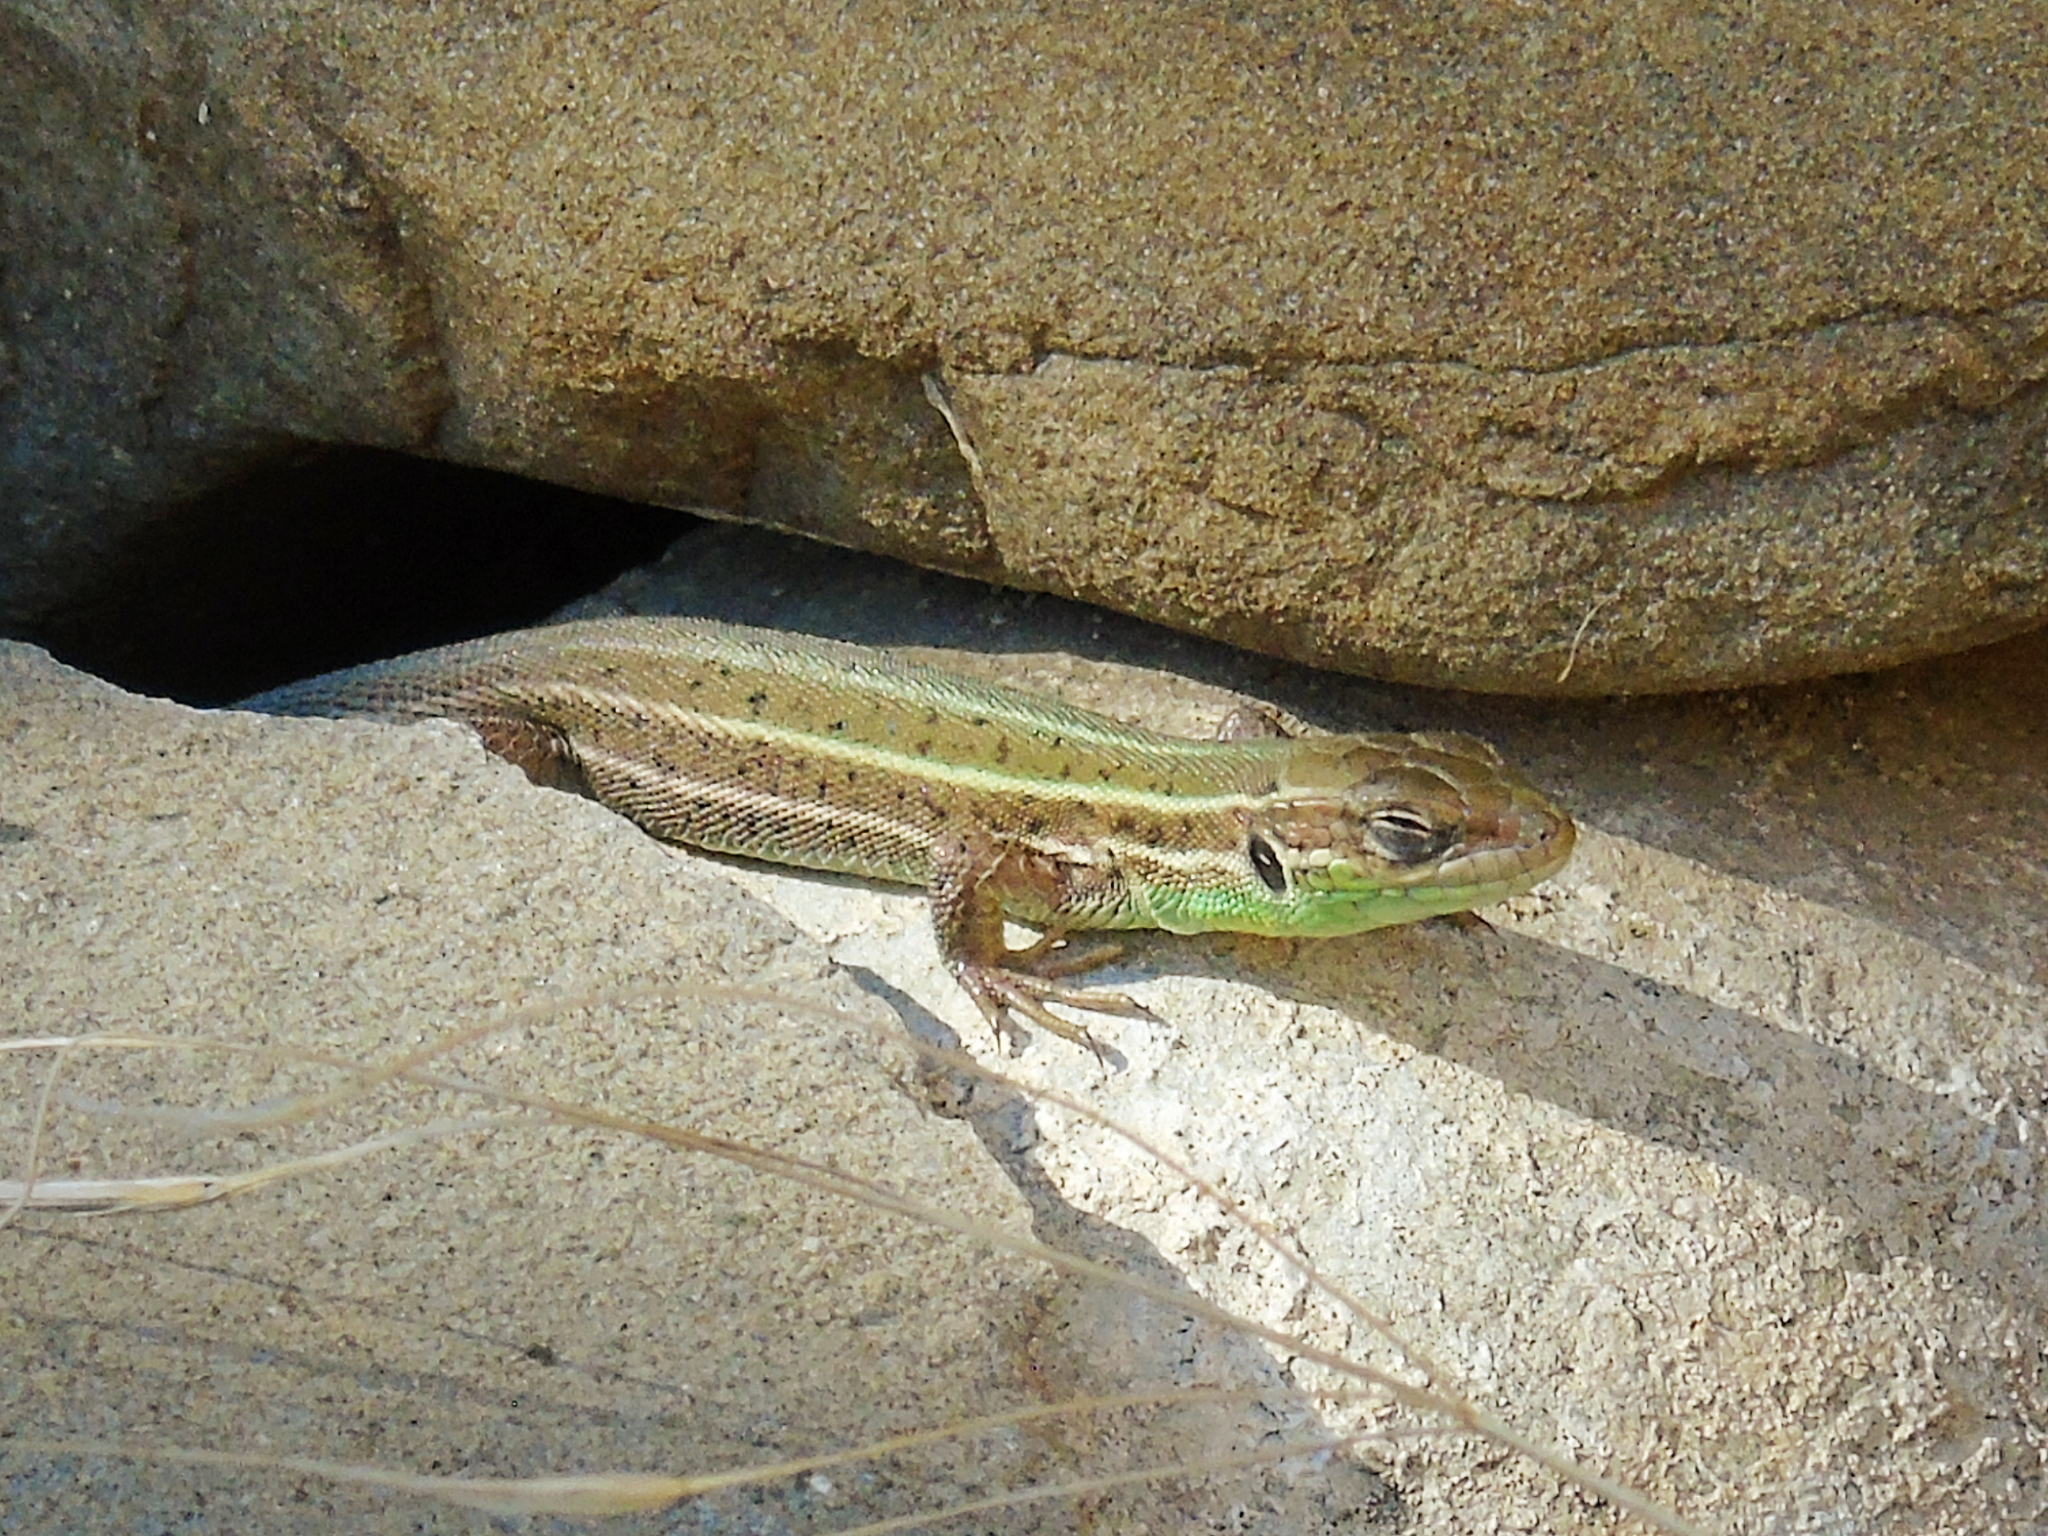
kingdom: Animalia
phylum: Chordata
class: Squamata
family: Lacertidae
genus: Lacerta
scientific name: Lacerta strigata
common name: Caspian green lizard
